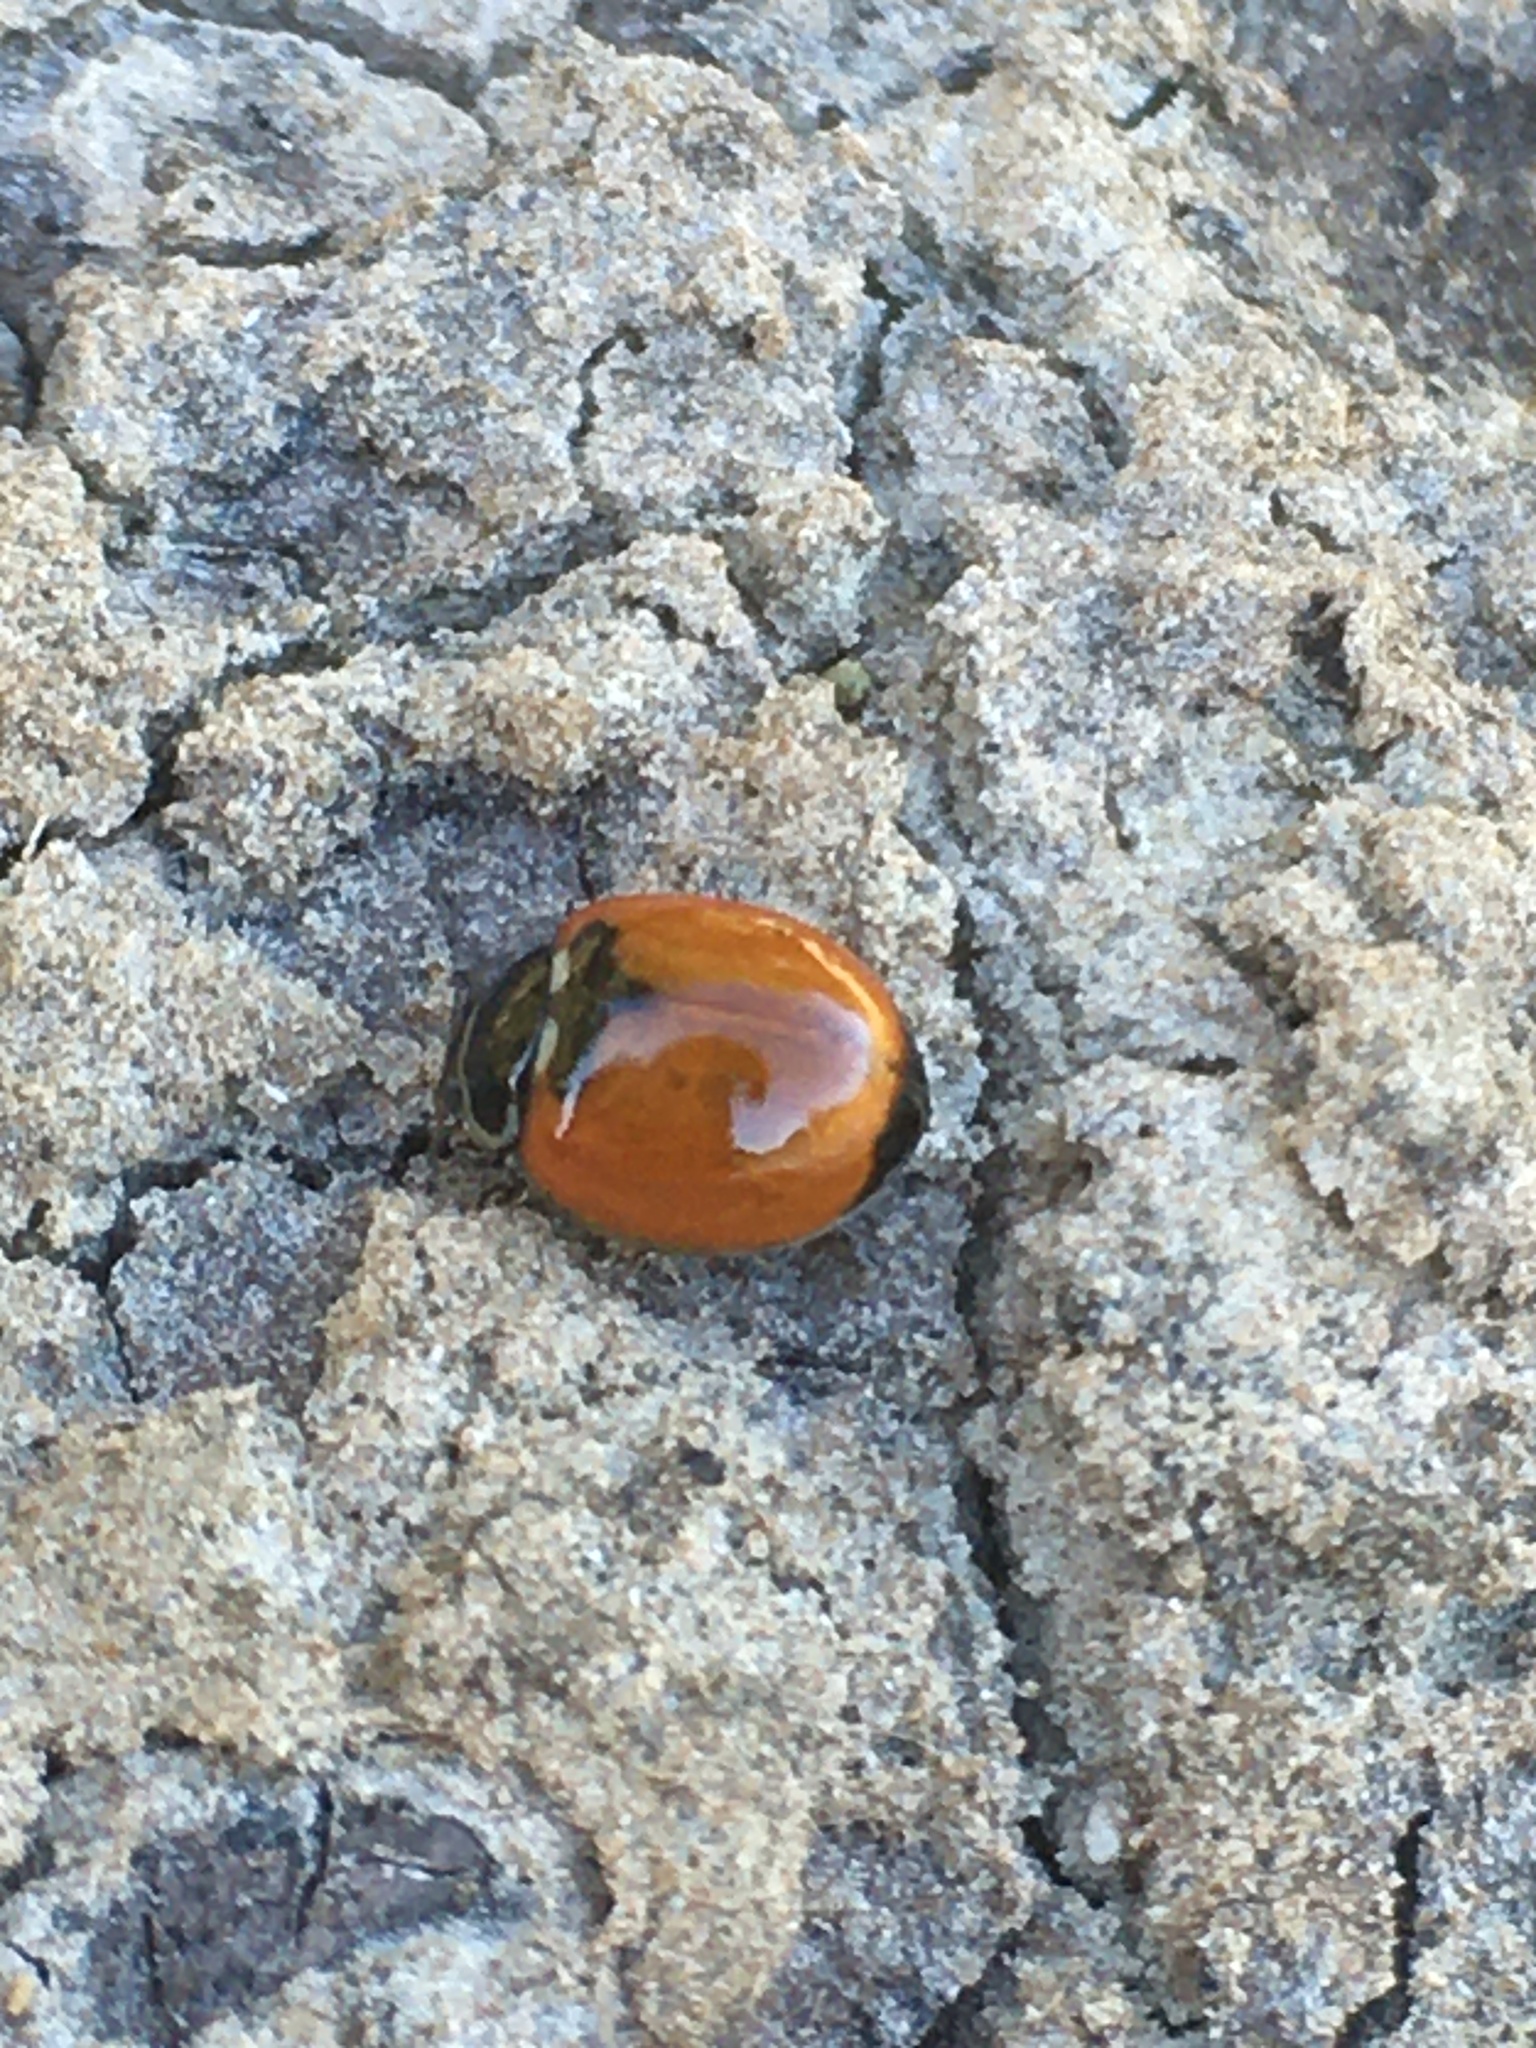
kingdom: Animalia
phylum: Arthropoda
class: Insecta
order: Coleoptera
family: Coccinellidae
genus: Adalia
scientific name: Adalia deficiens
